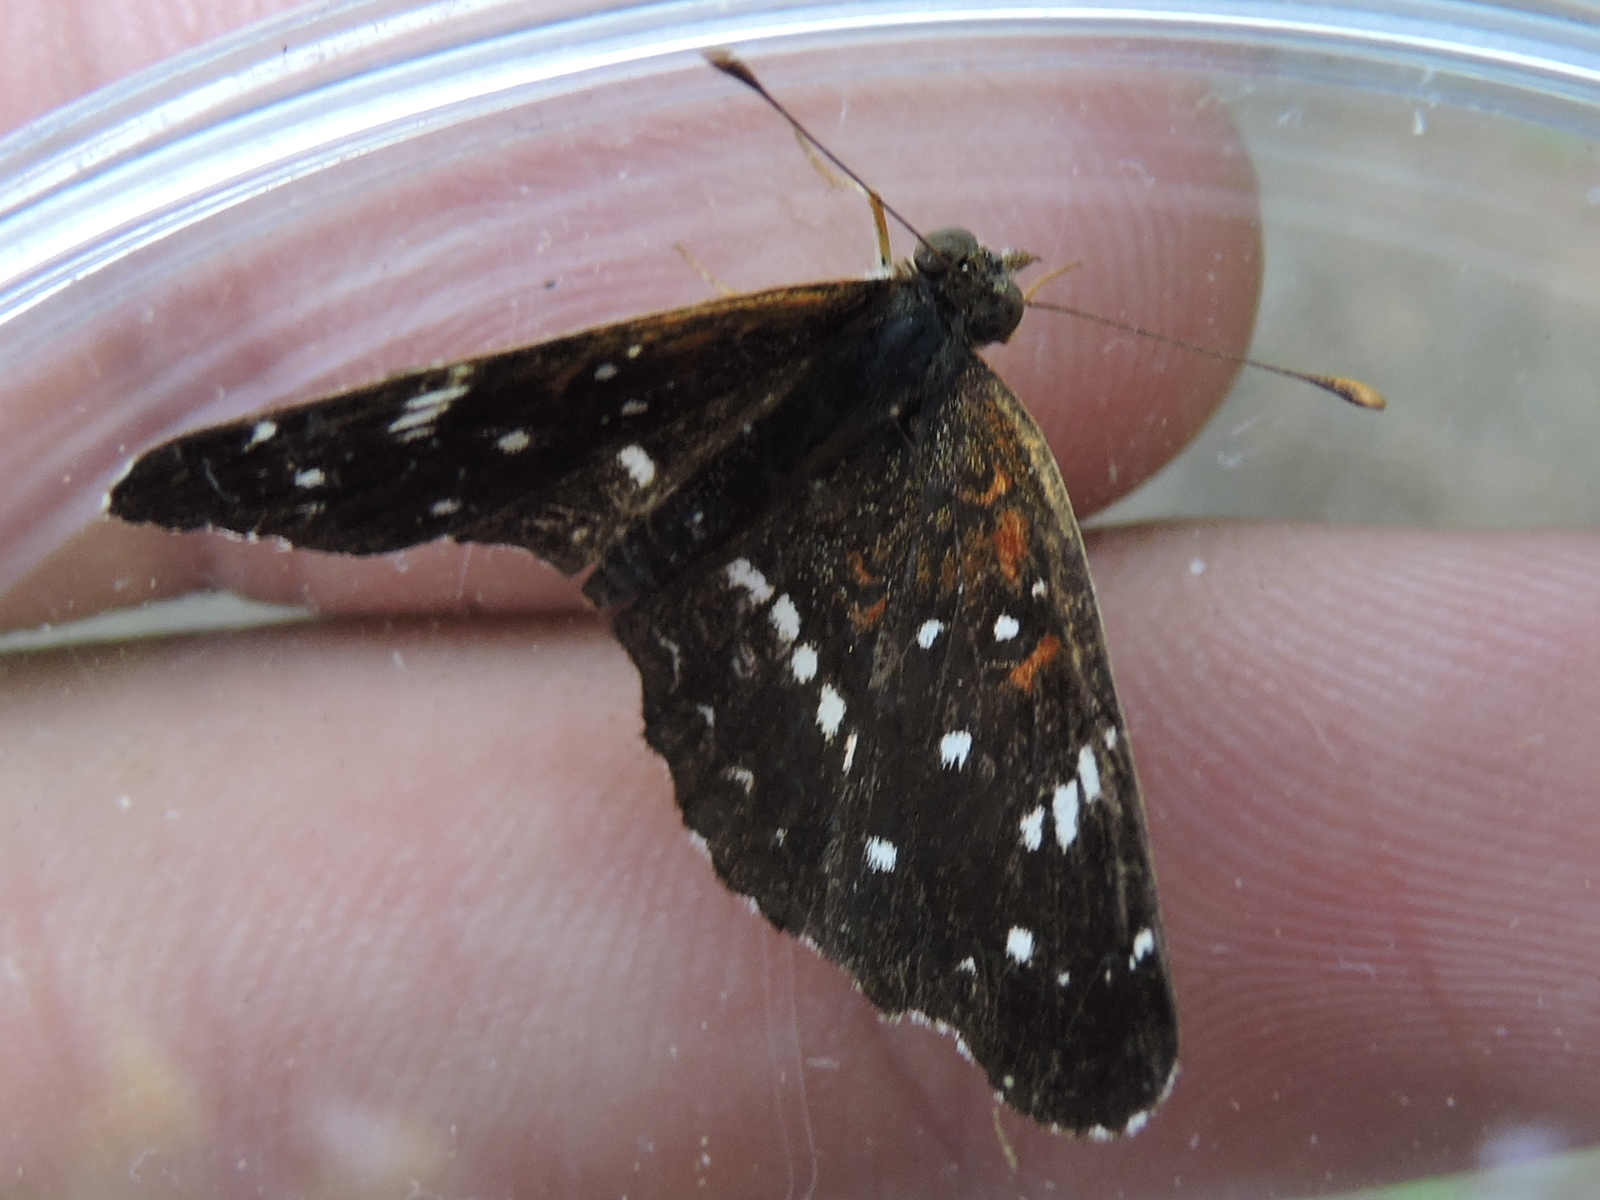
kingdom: Animalia
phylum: Arthropoda
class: Insecta
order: Lepidoptera
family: Nymphalidae
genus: Anthanassa
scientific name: Anthanassa texana
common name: Texan crescent
